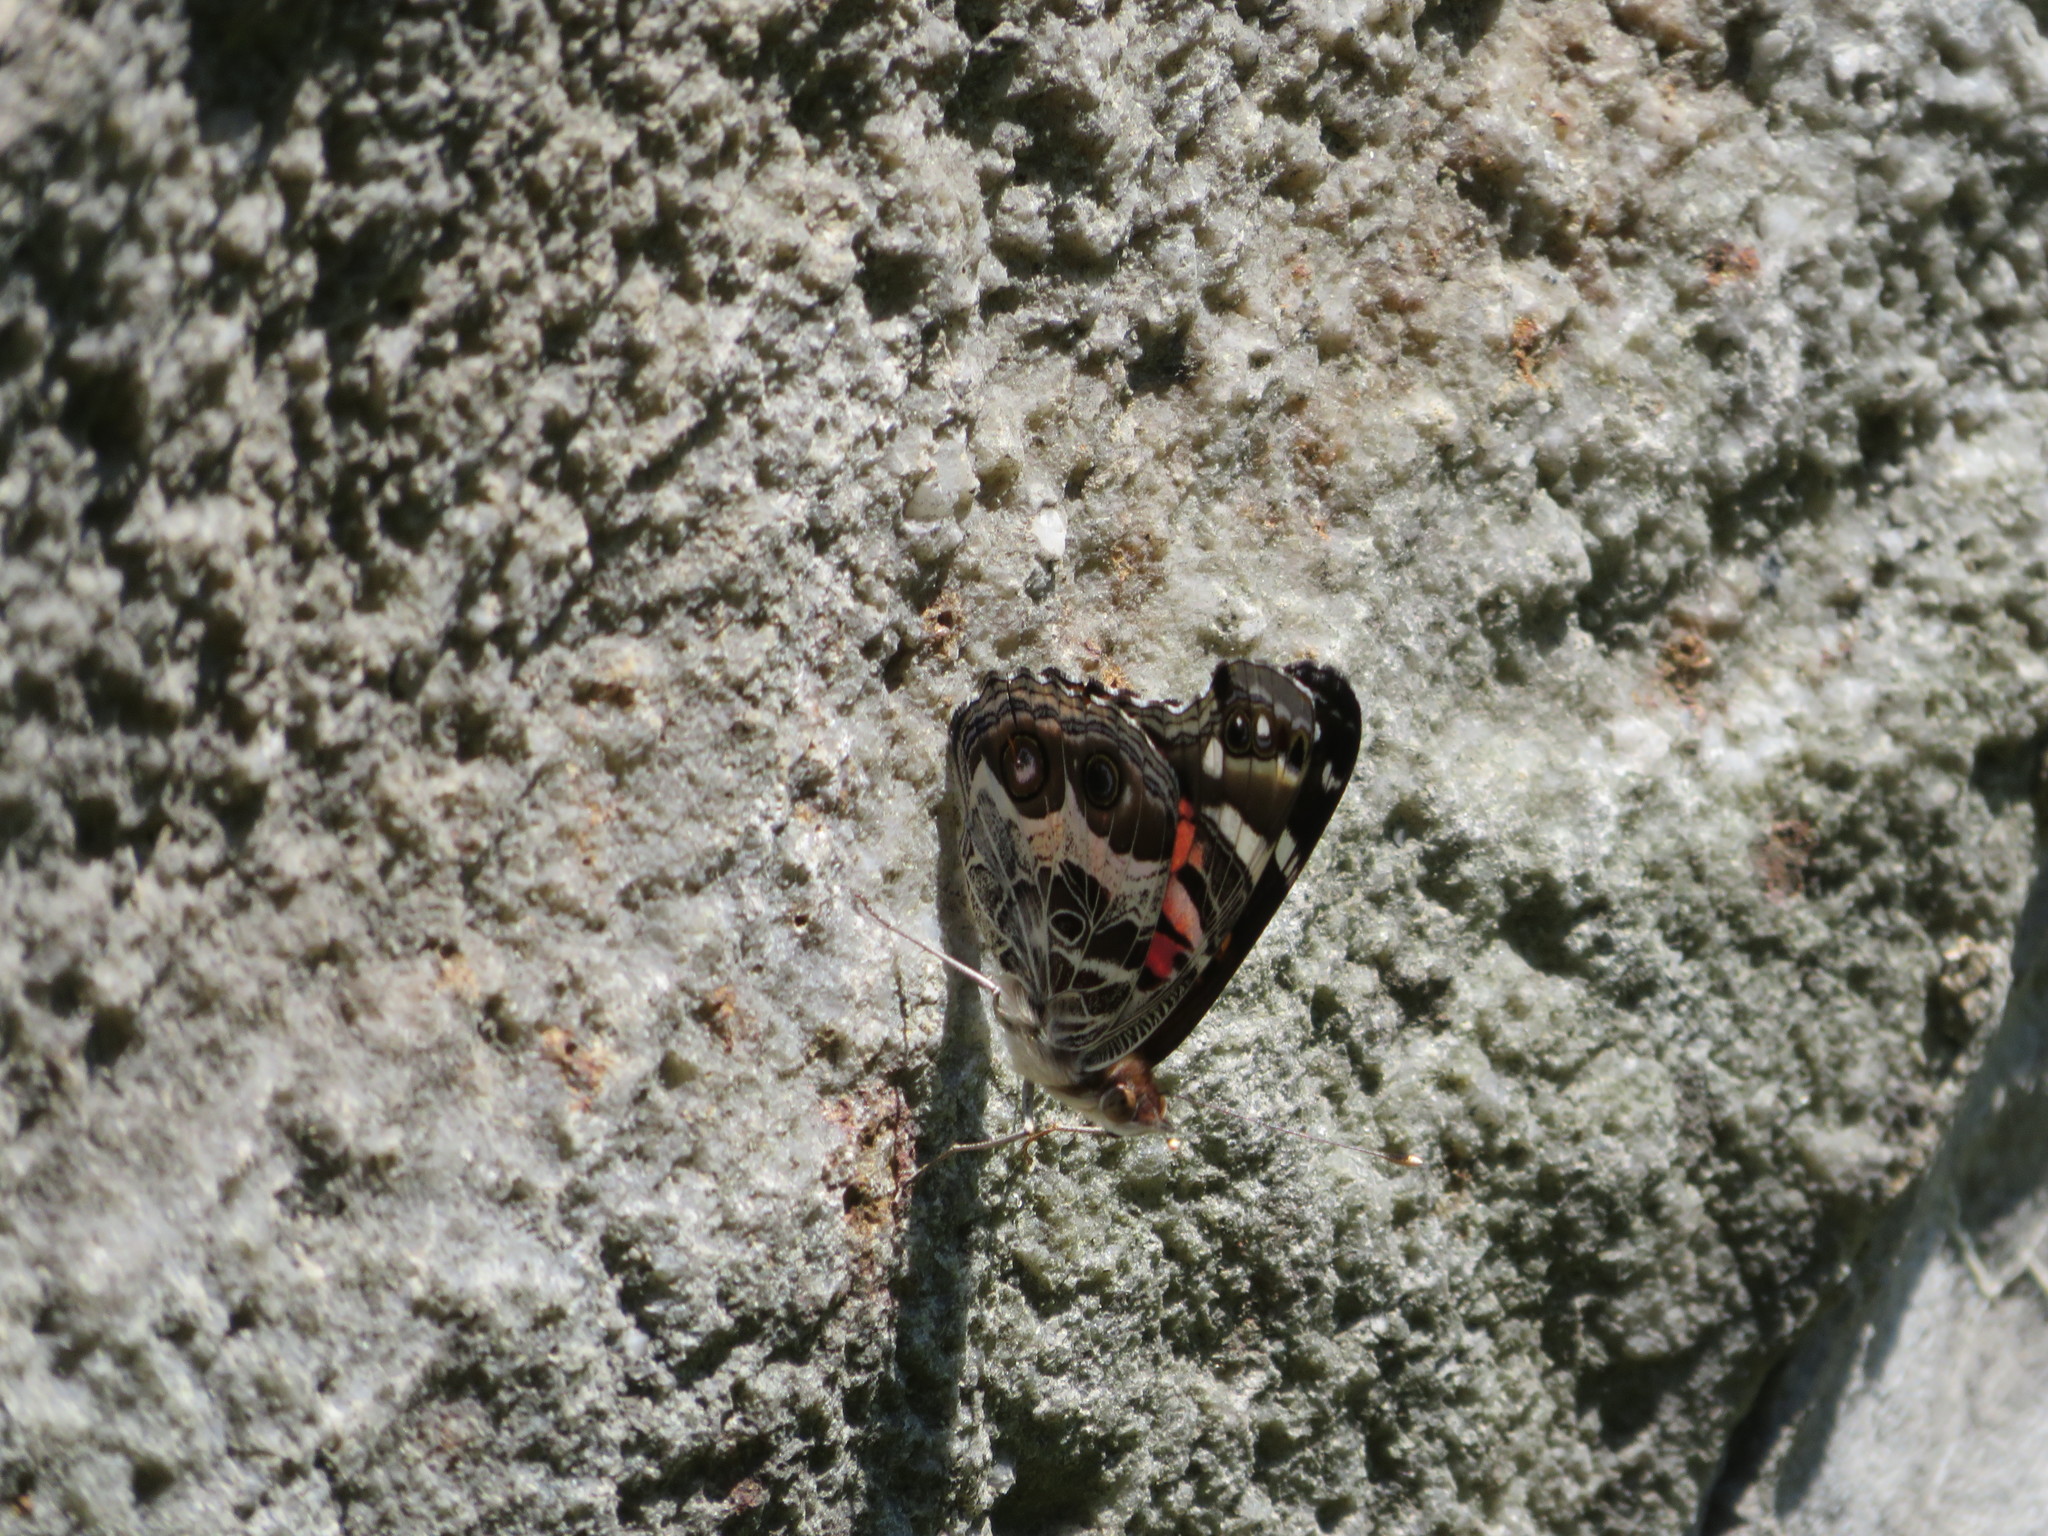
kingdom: Animalia
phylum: Arthropoda
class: Insecta
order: Lepidoptera
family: Nymphalidae
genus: Vanessa
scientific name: Vanessa virginiensis
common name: American lady
